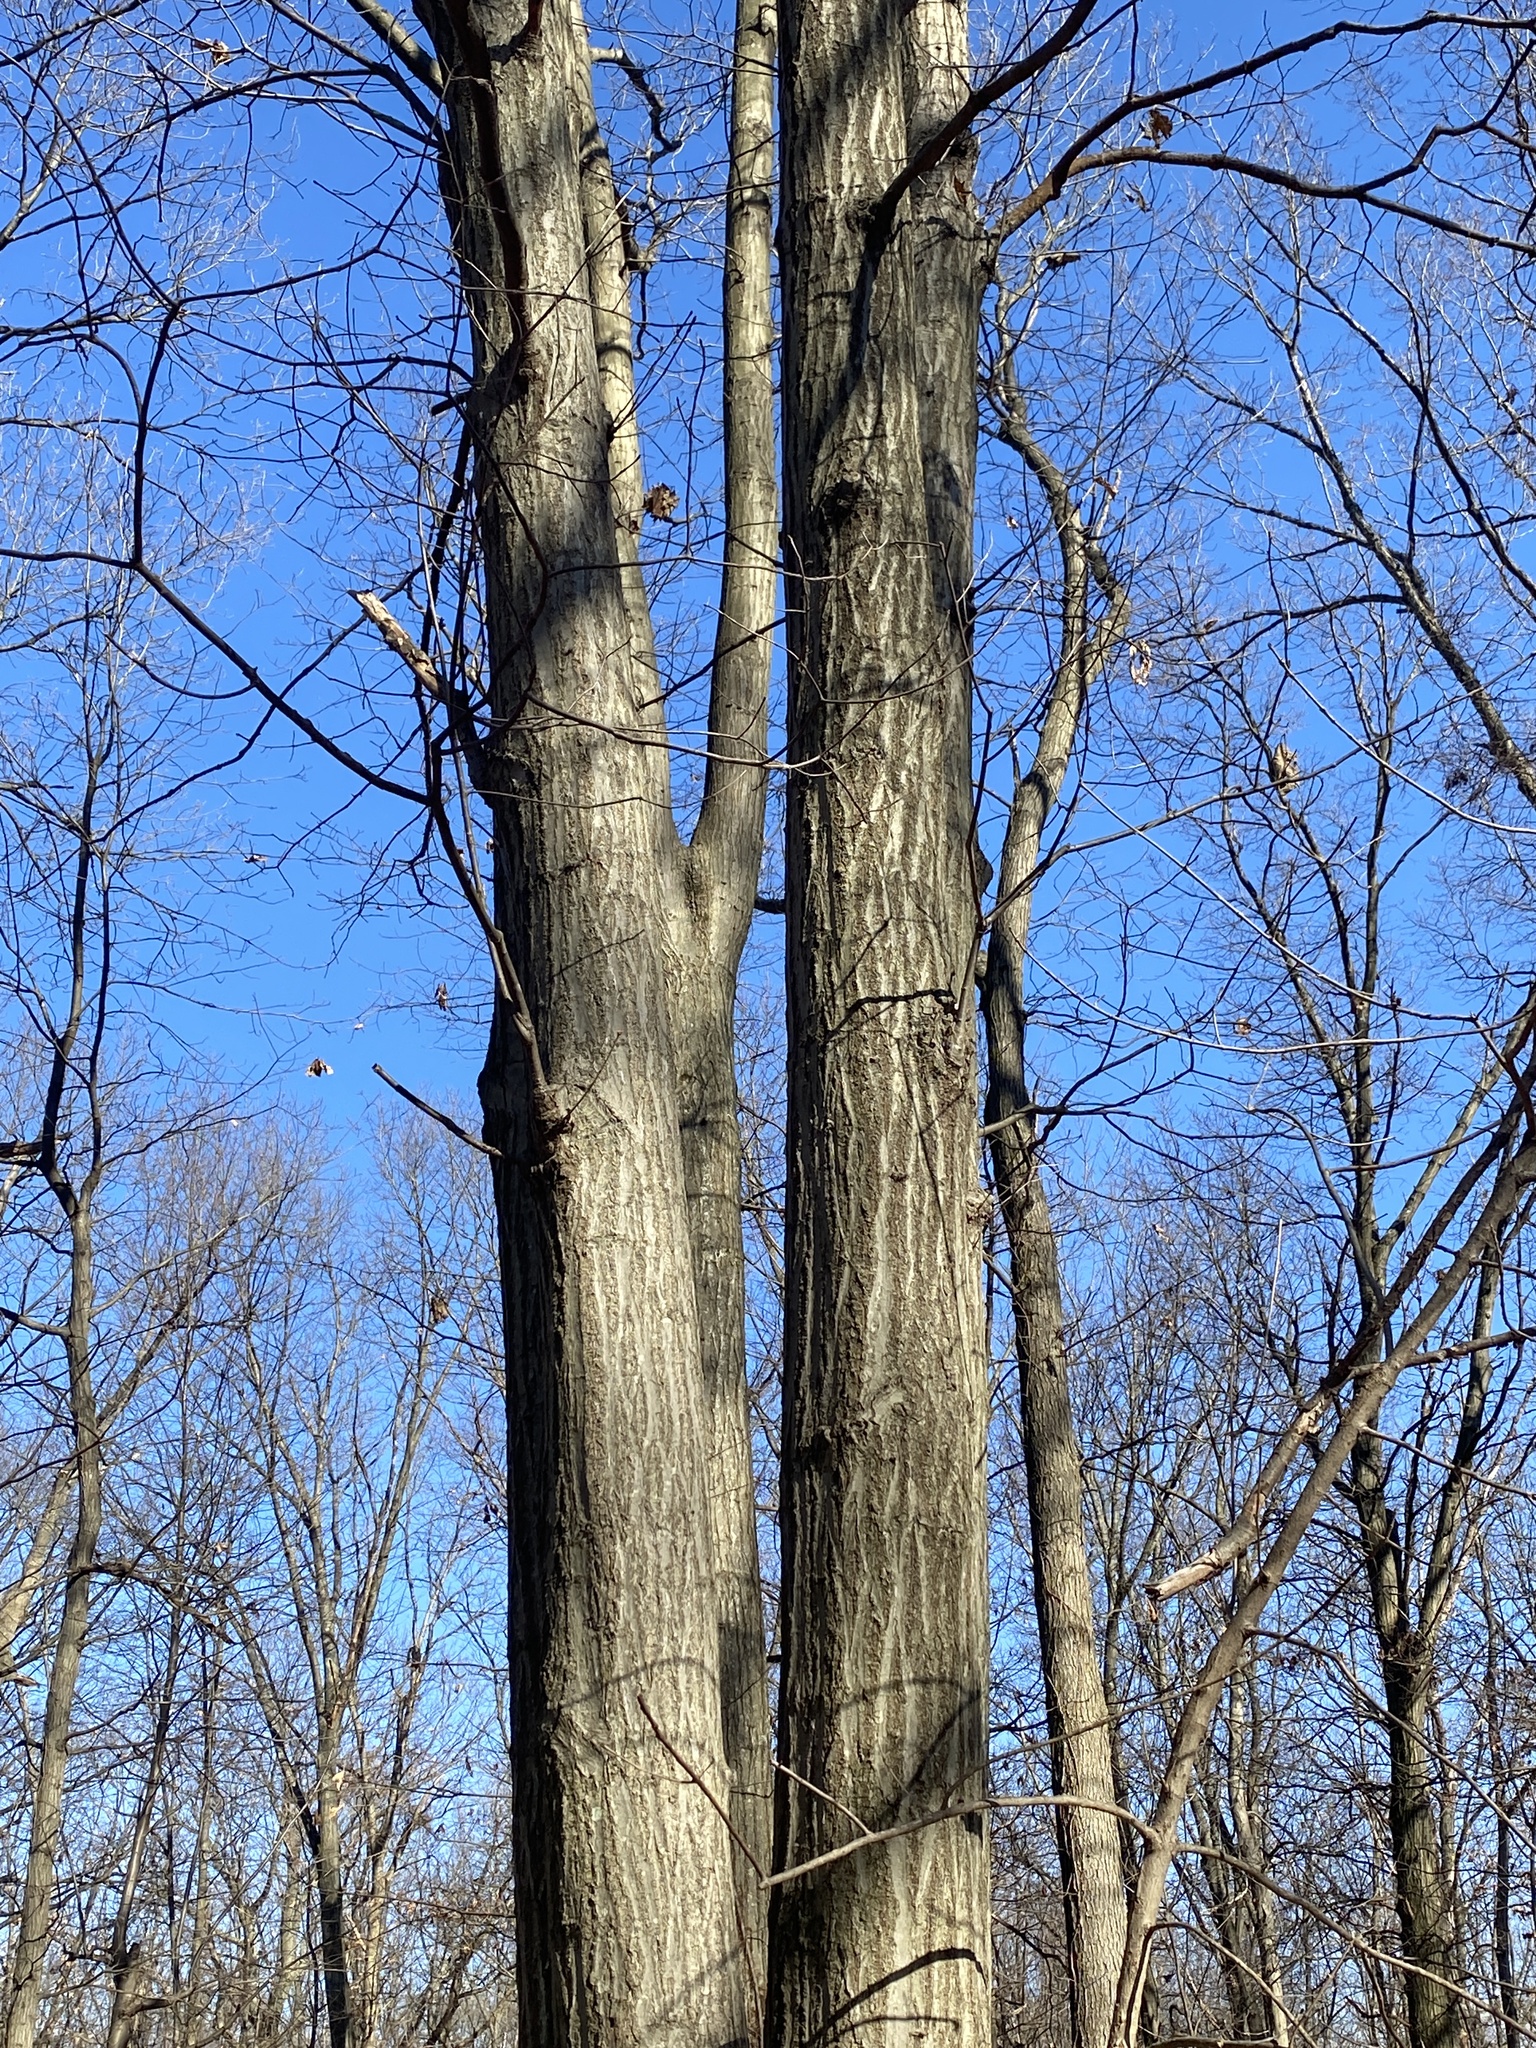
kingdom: Plantae
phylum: Tracheophyta
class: Magnoliopsida
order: Fagales
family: Fagaceae
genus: Quercus
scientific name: Quercus rubra
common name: Red oak
